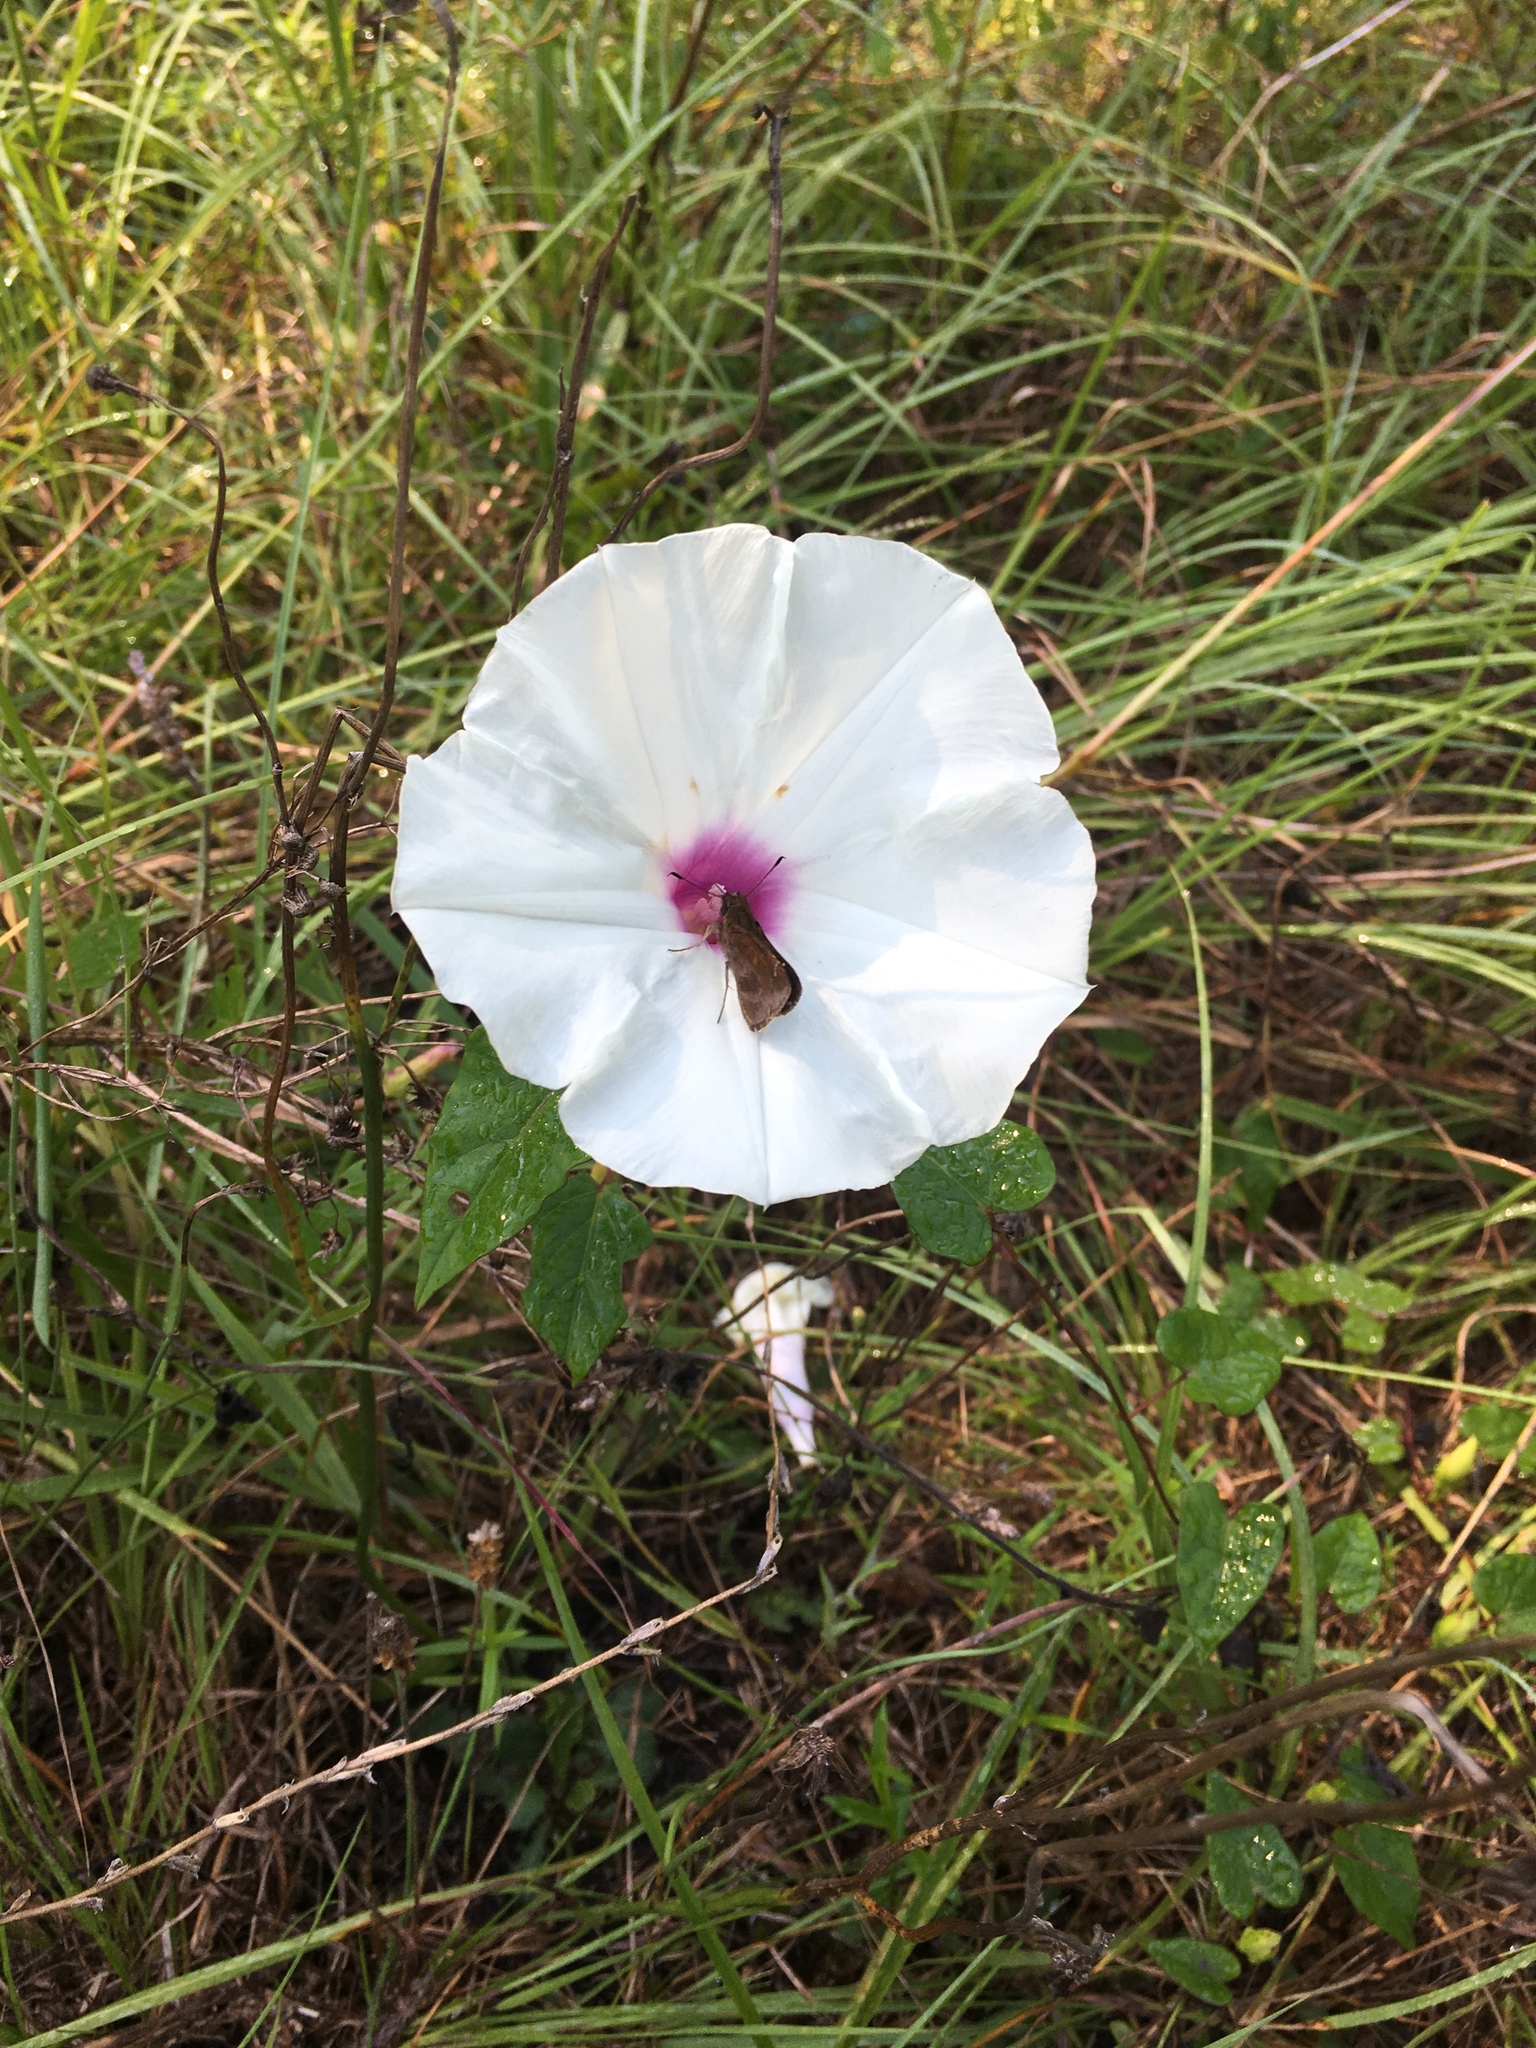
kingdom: Plantae
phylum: Tracheophyta
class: Magnoliopsida
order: Solanales
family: Convolvulaceae
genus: Ipomoea
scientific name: Ipomoea pandurata
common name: Man-of-the-earth
